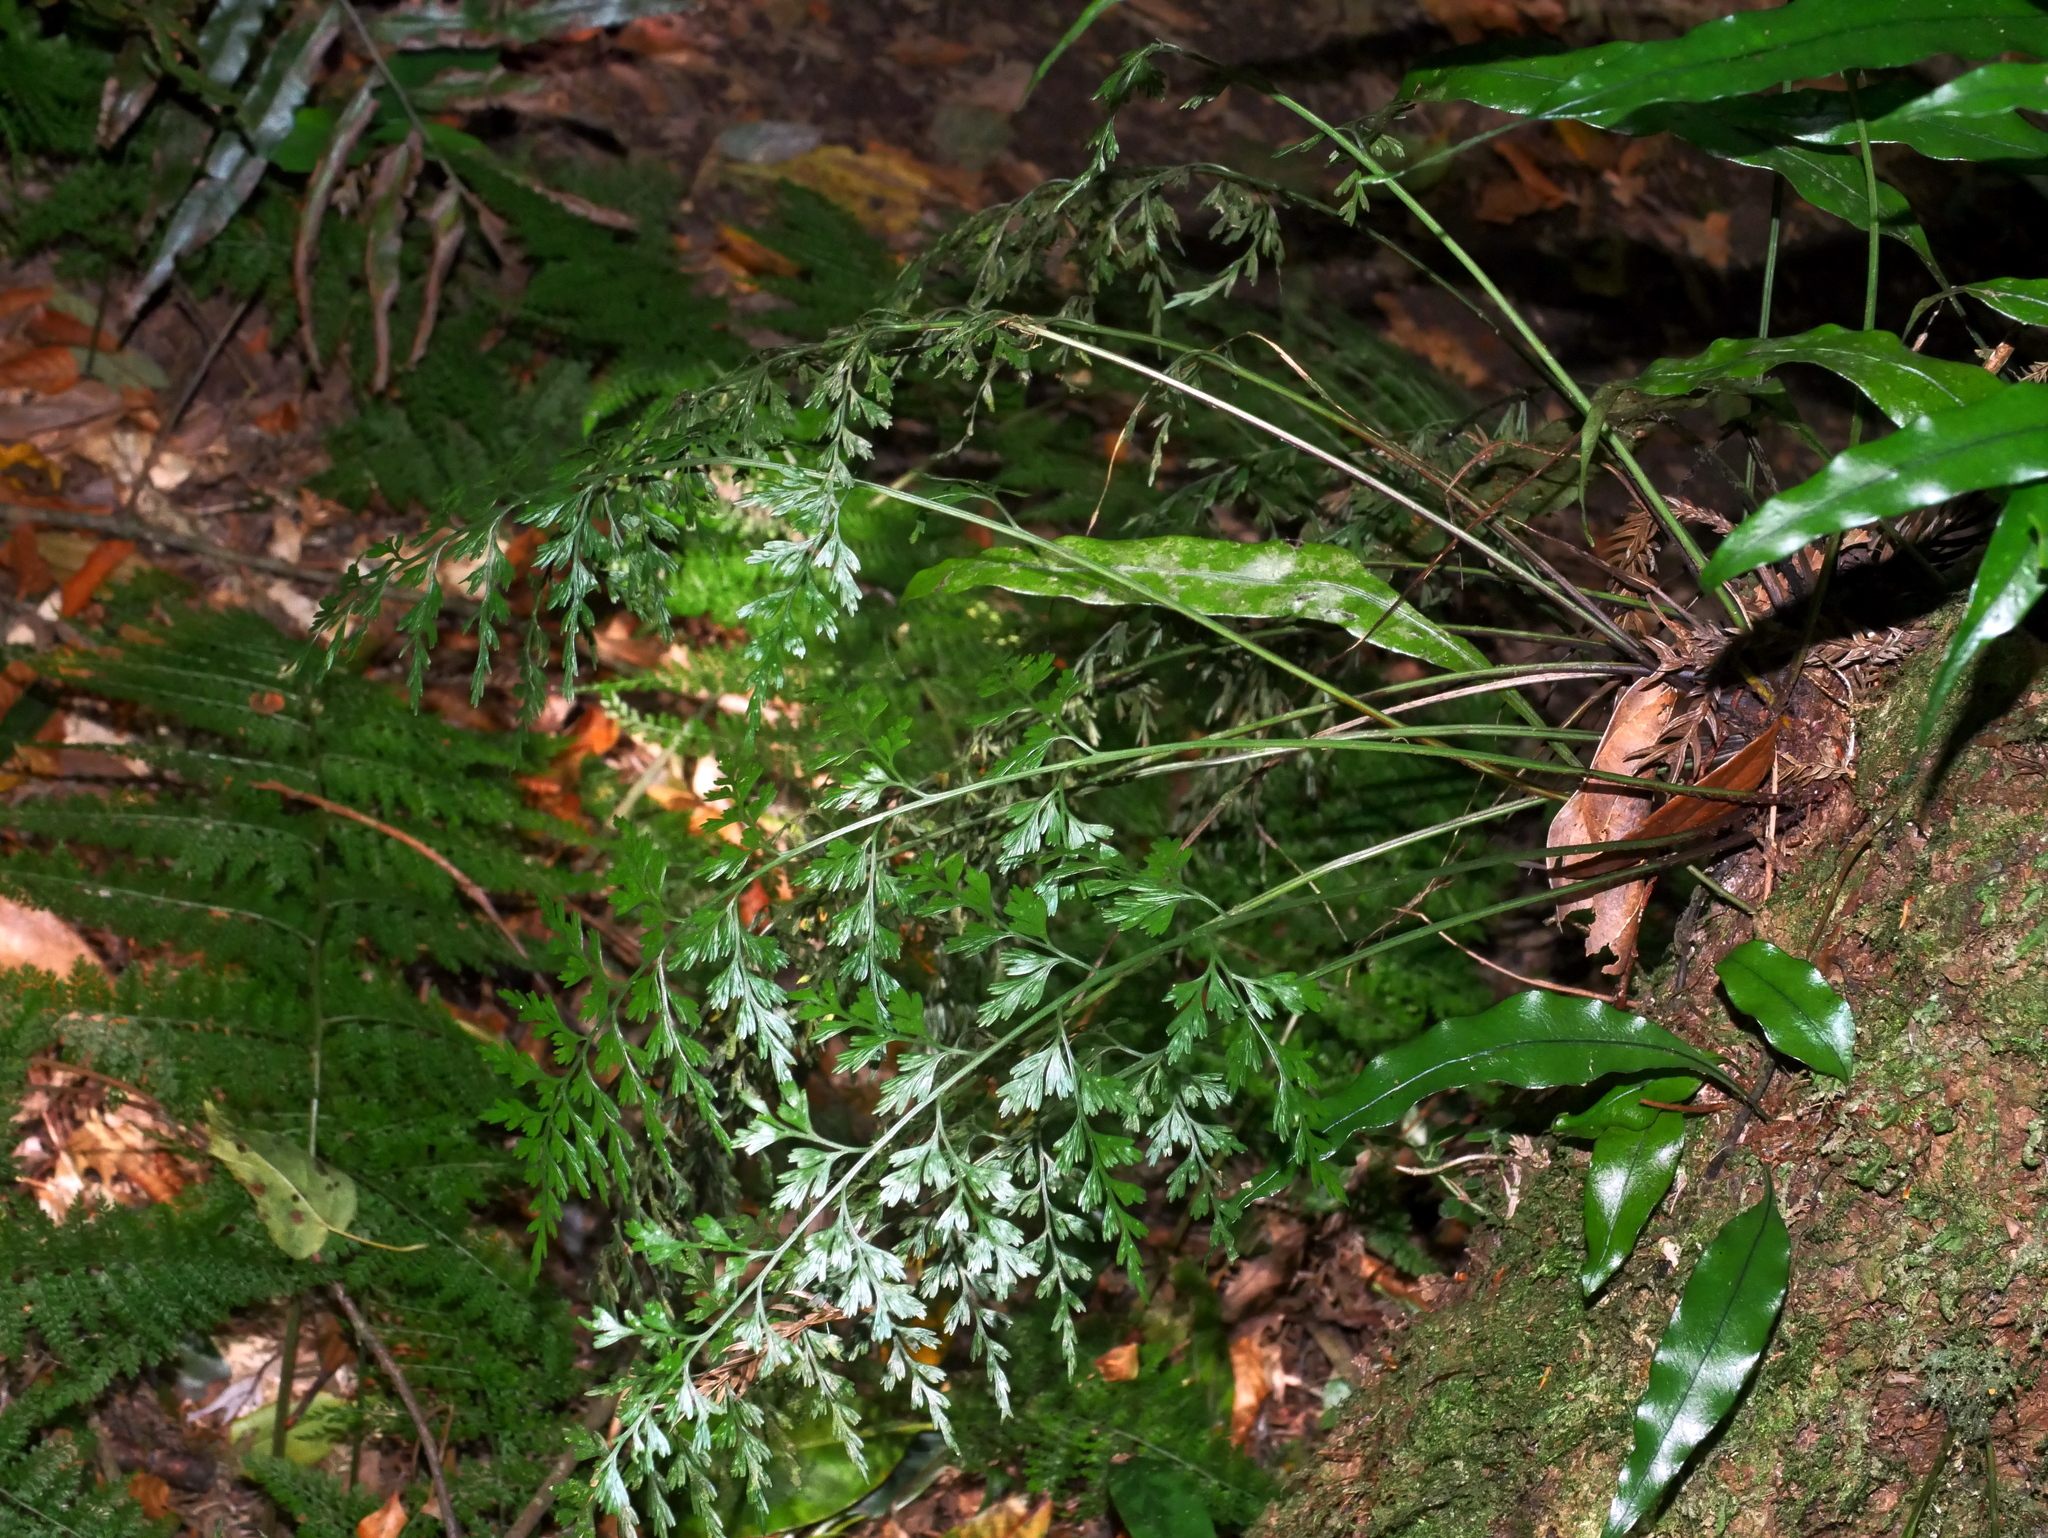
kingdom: Plantae
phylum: Tracheophyta
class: Polypodiopsida
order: Polypodiales
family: Aspleniaceae
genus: Asplenium
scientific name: Asplenium wilfordii
